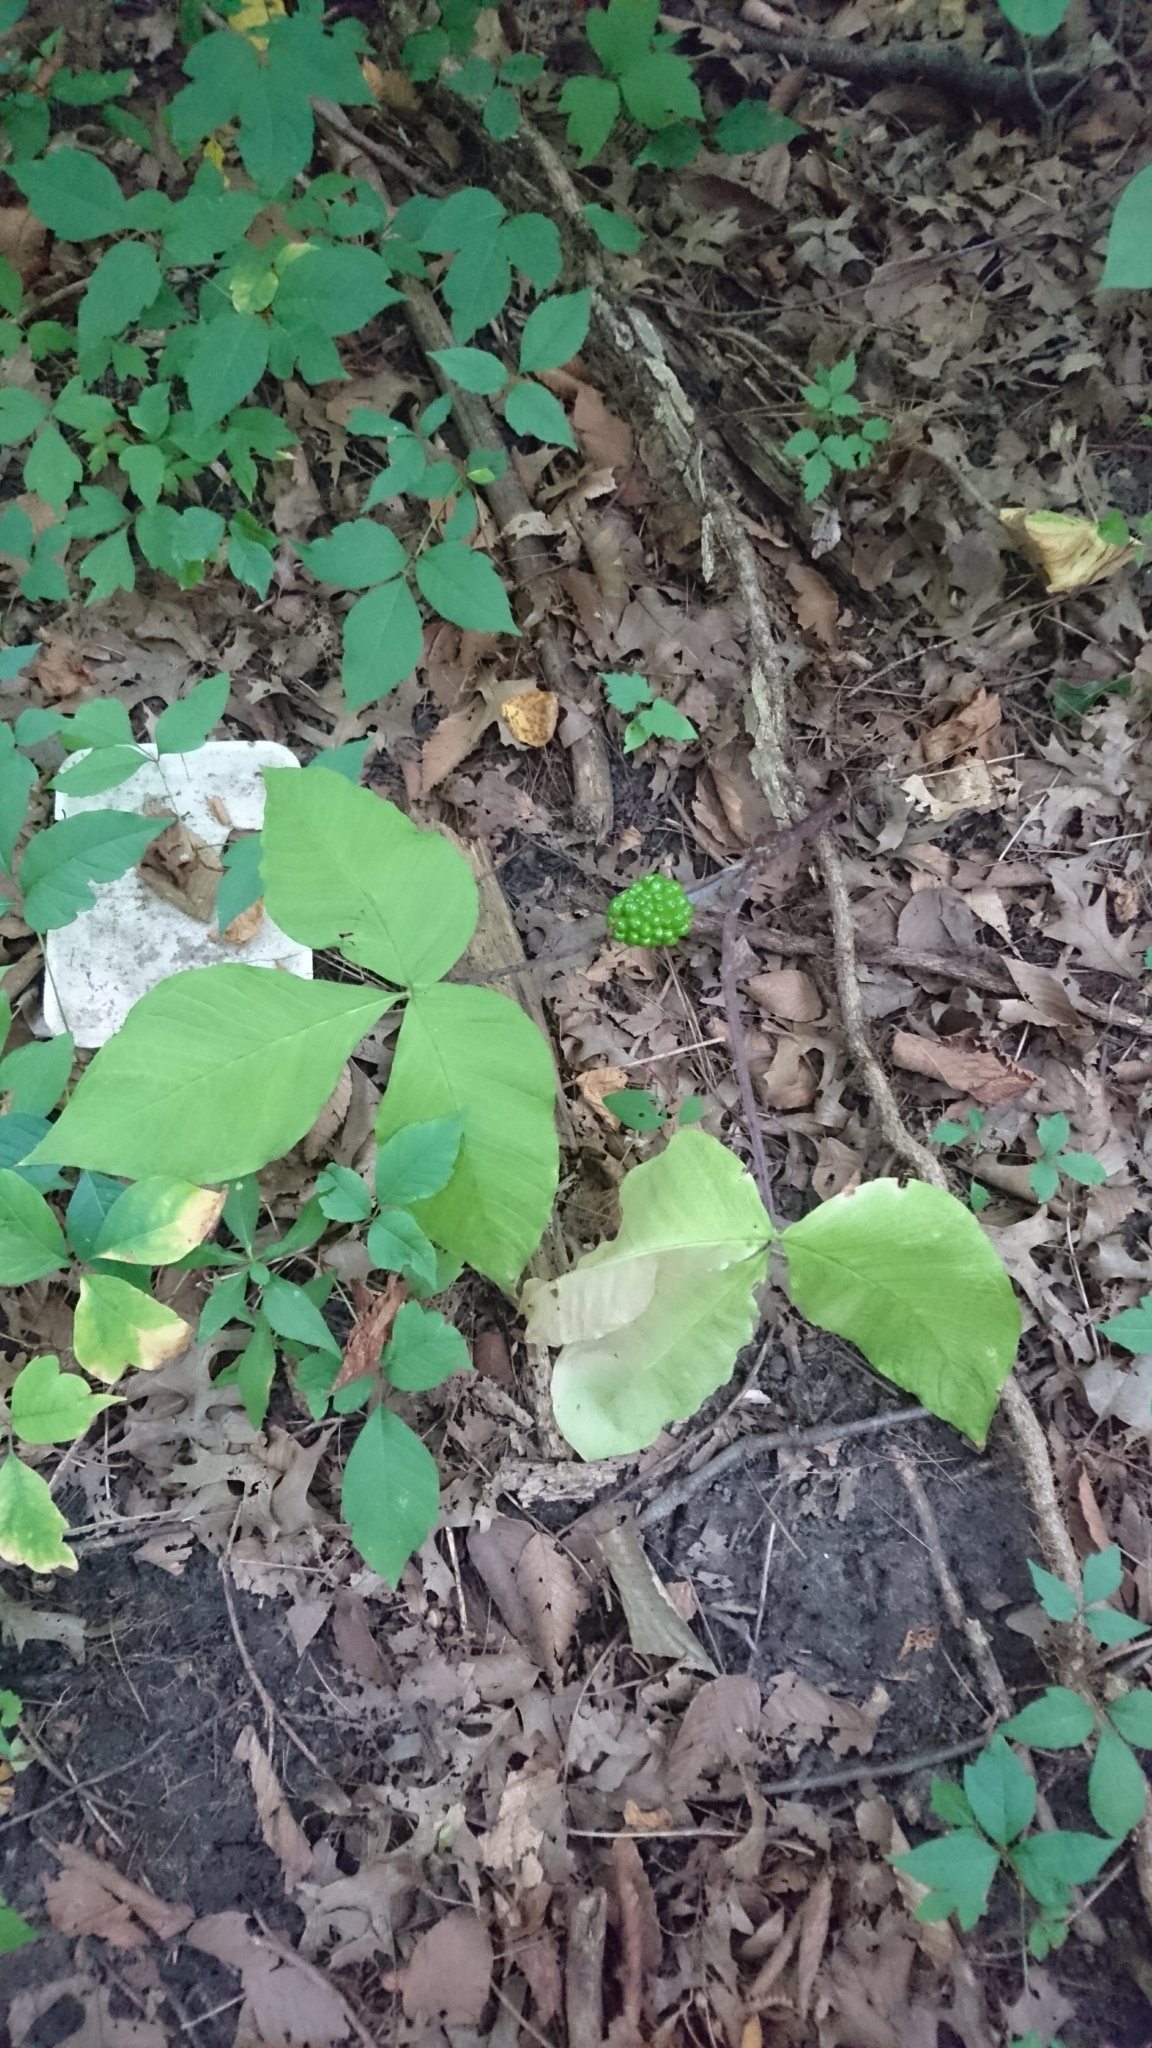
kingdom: Plantae
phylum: Tracheophyta
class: Liliopsida
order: Alismatales
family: Araceae
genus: Arisaema
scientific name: Arisaema triphyllum
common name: Jack-in-the-pulpit
